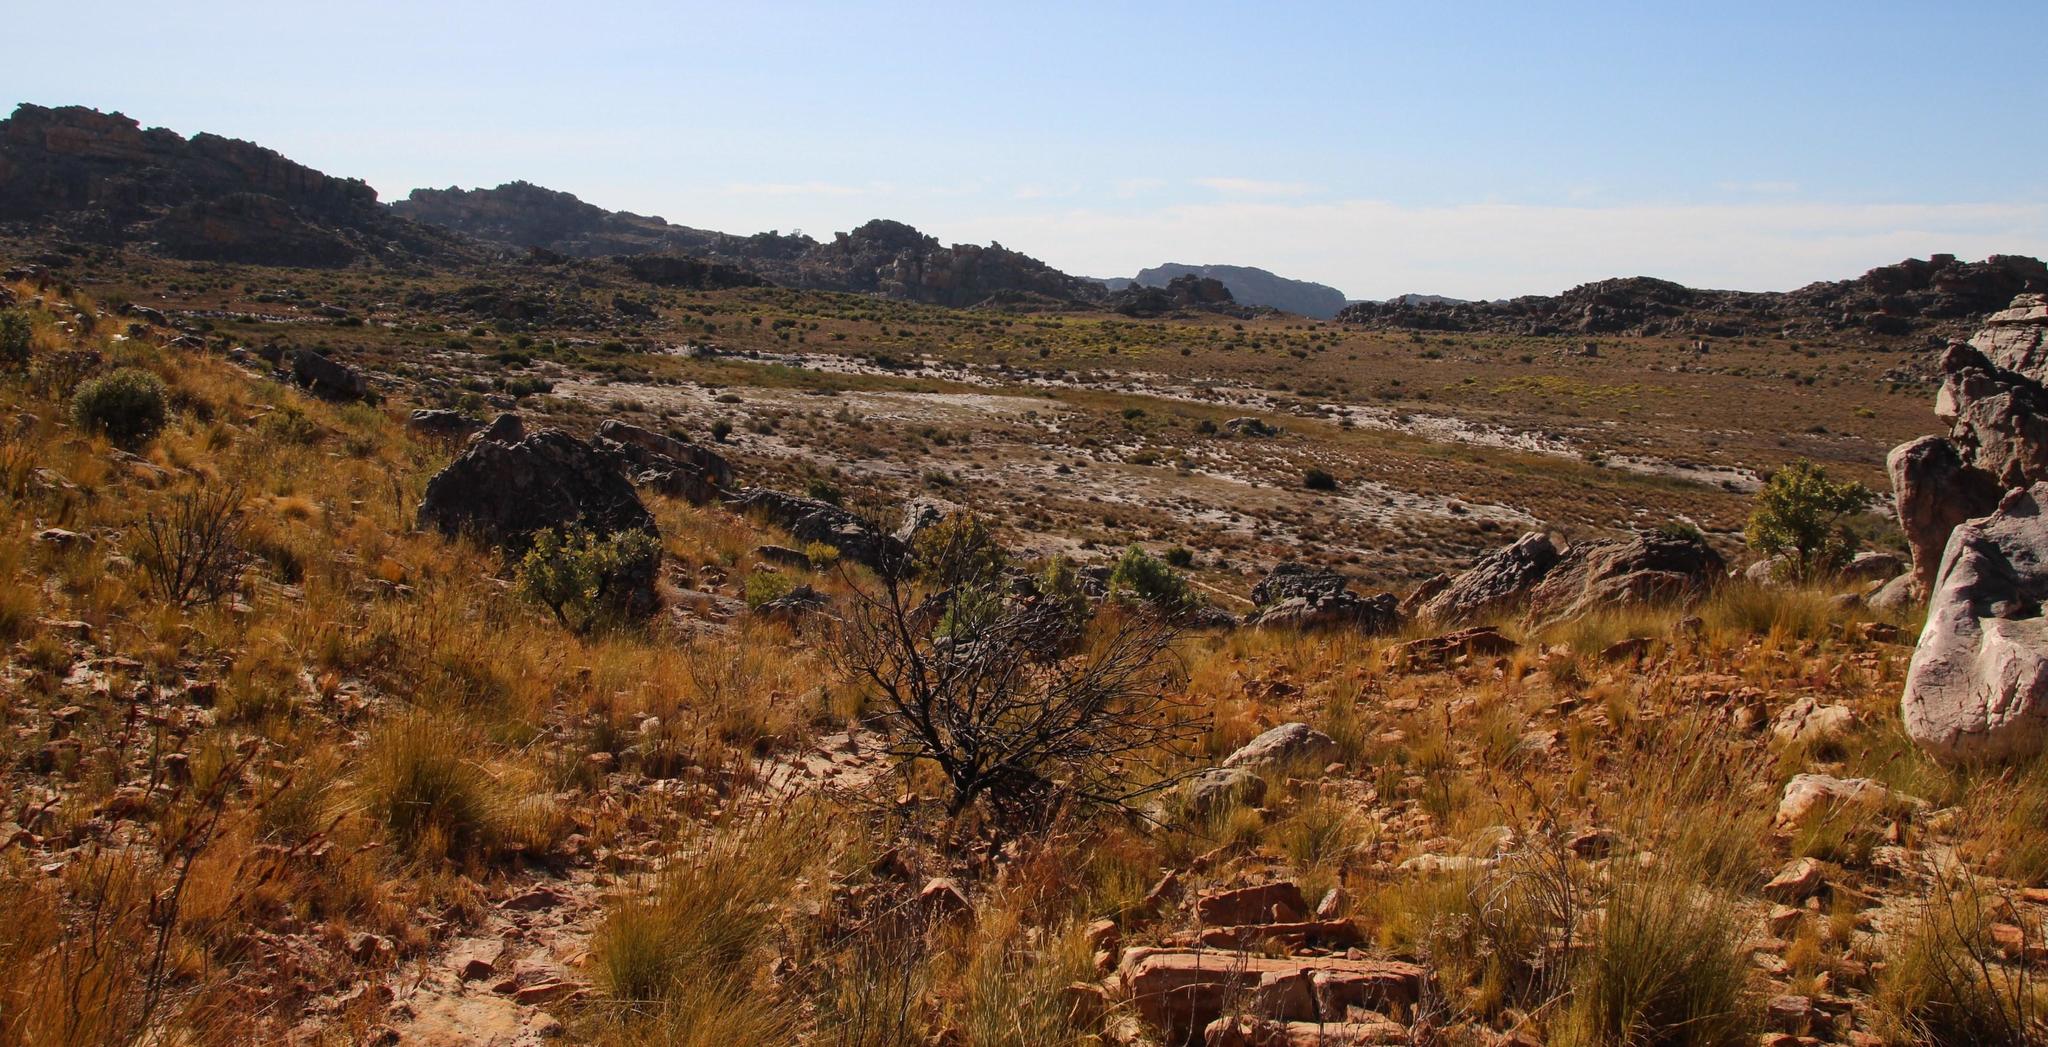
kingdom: Plantae
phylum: Tracheophyta
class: Magnoliopsida
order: Proteales
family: Proteaceae
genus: Protea
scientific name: Protea laurifolia
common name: Grey-leaf sugarbsh
